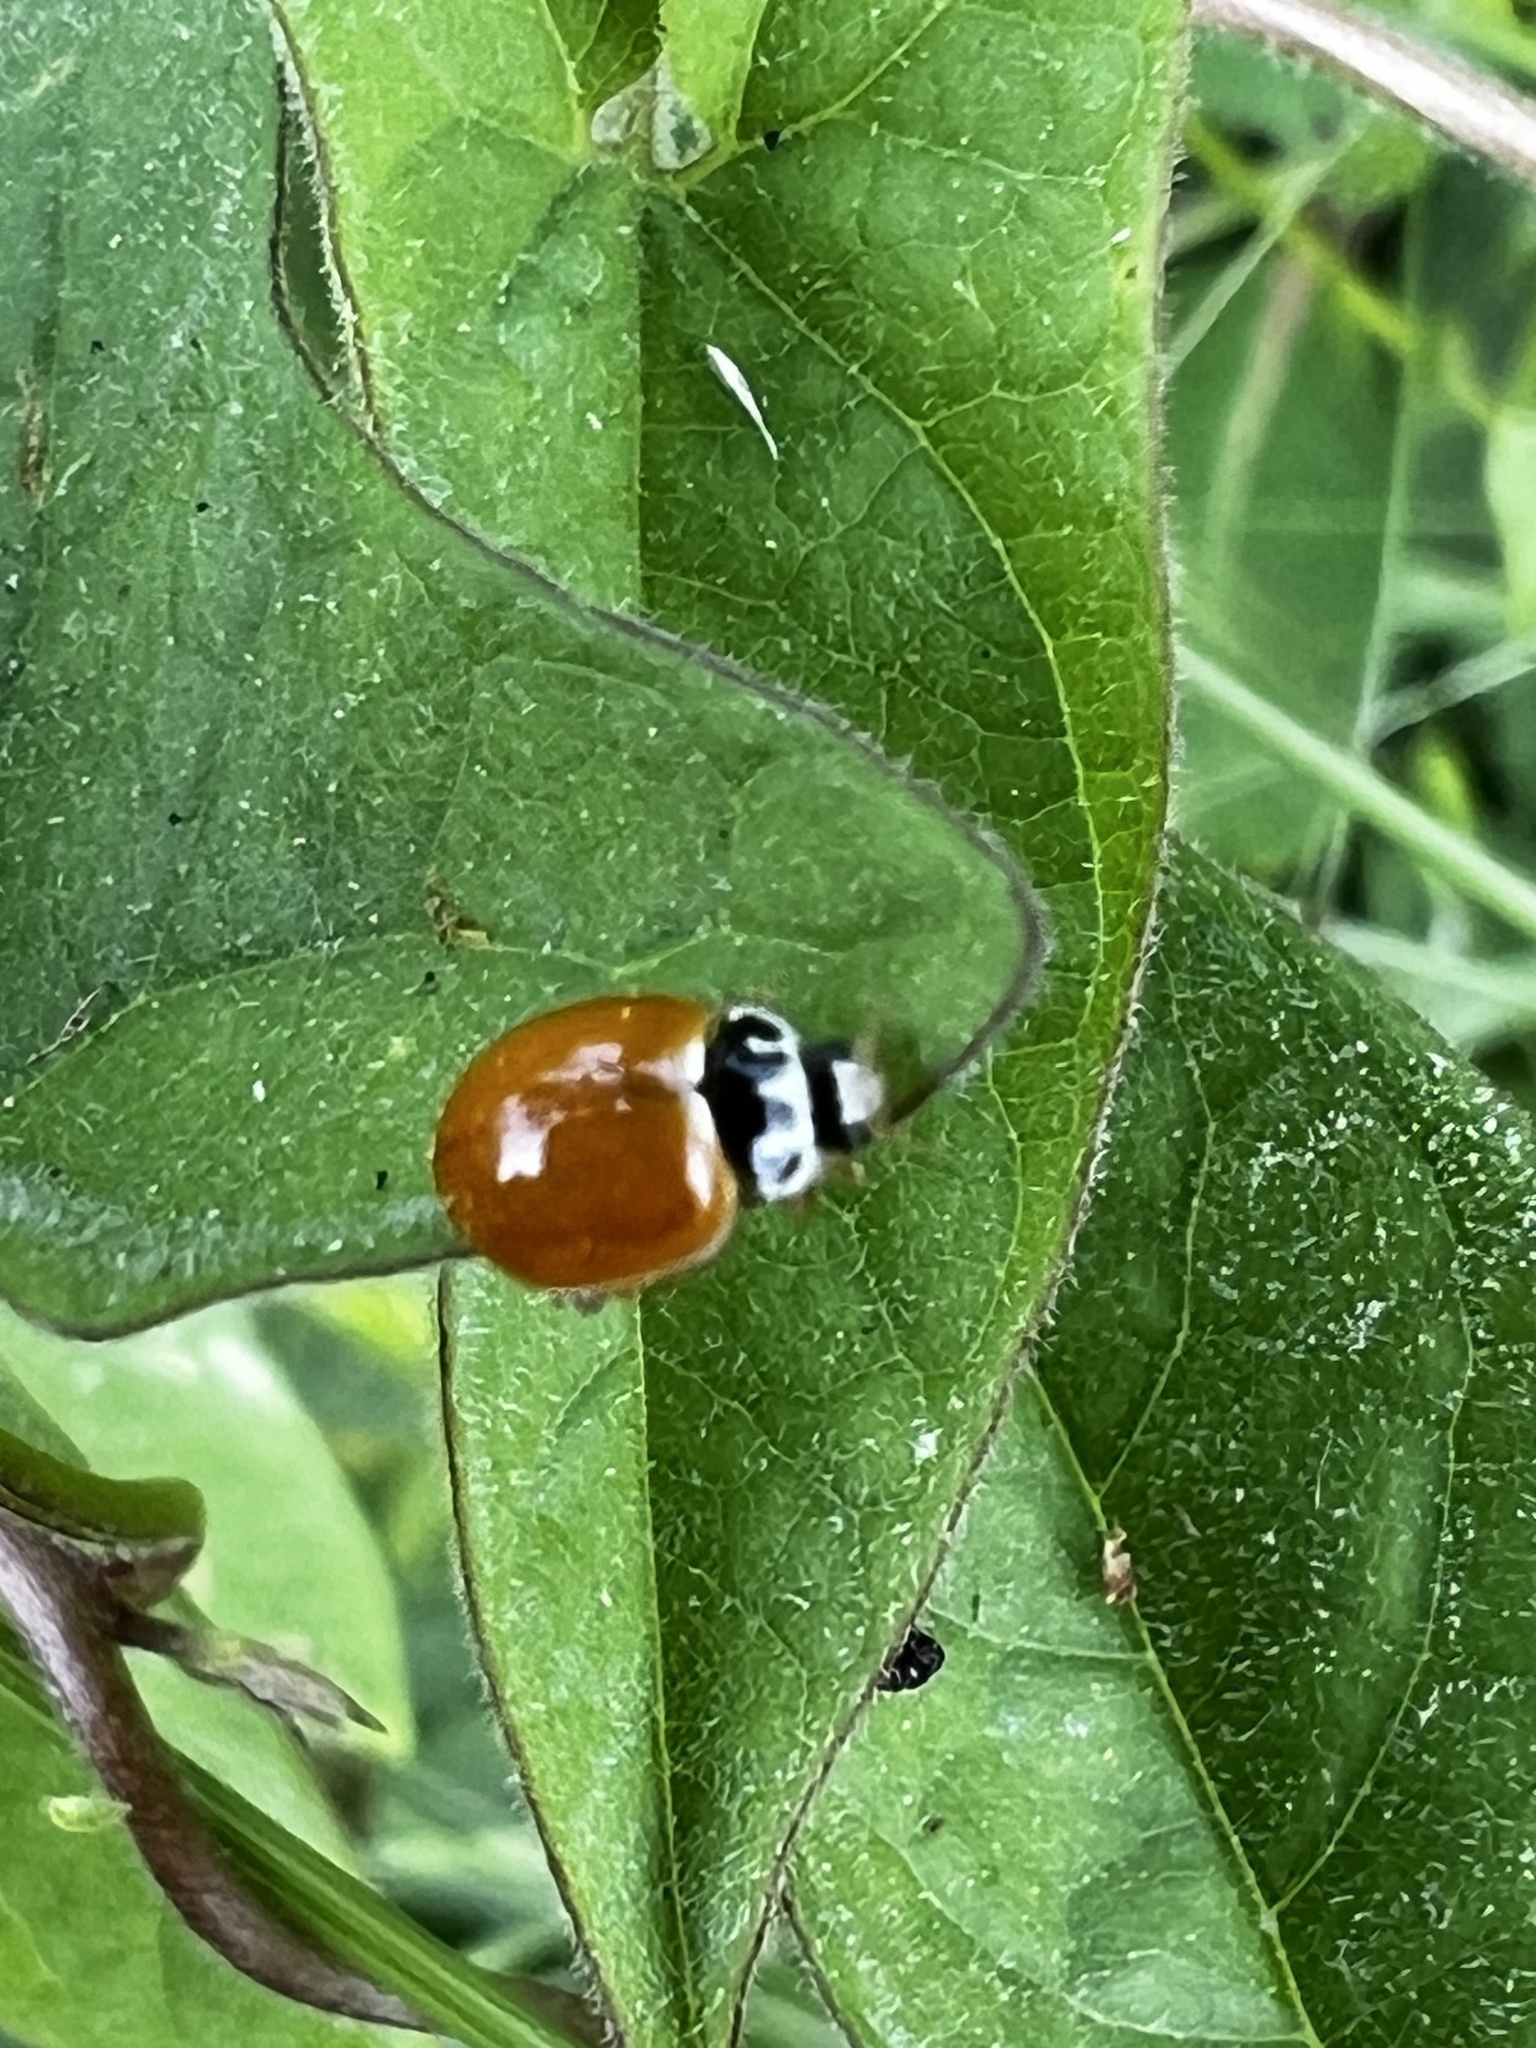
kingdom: Animalia
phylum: Arthropoda
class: Insecta
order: Coleoptera
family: Coccinellidae
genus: Cycloneda
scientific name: Cycloneda munda
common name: Polished lady beetle
